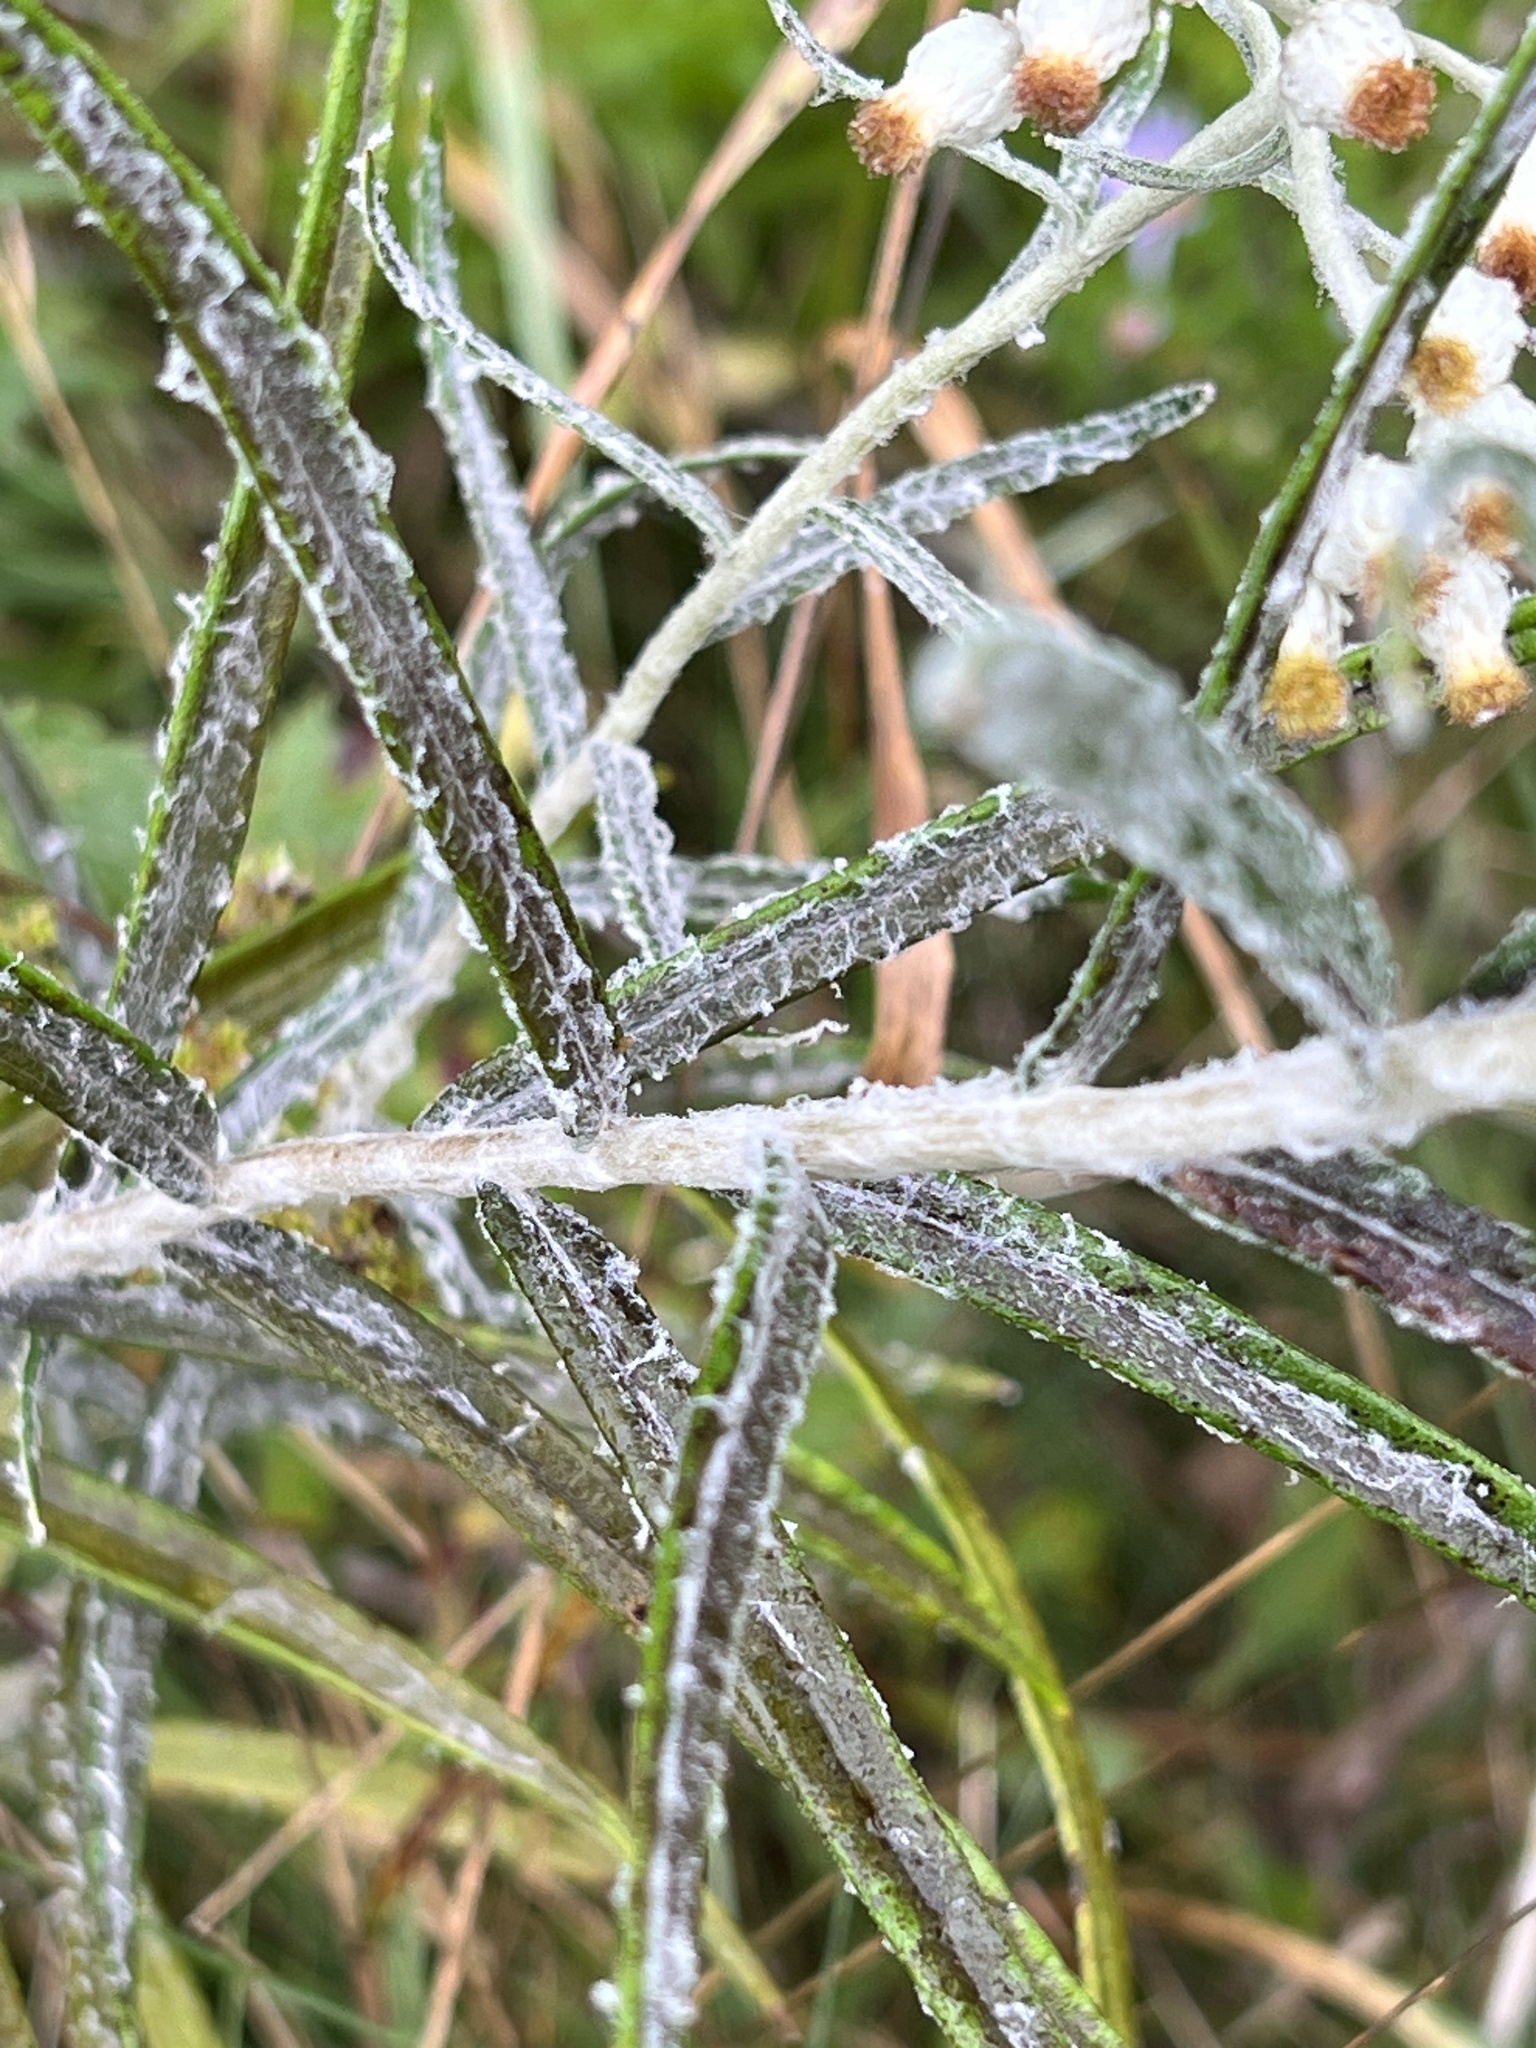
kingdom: Plantae
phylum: Tracheophyta
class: Magnoliopsida
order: Asterales
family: Asteraceae
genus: Anaphalis
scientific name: Anaphalis margaritacea
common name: Pearly everlasting
